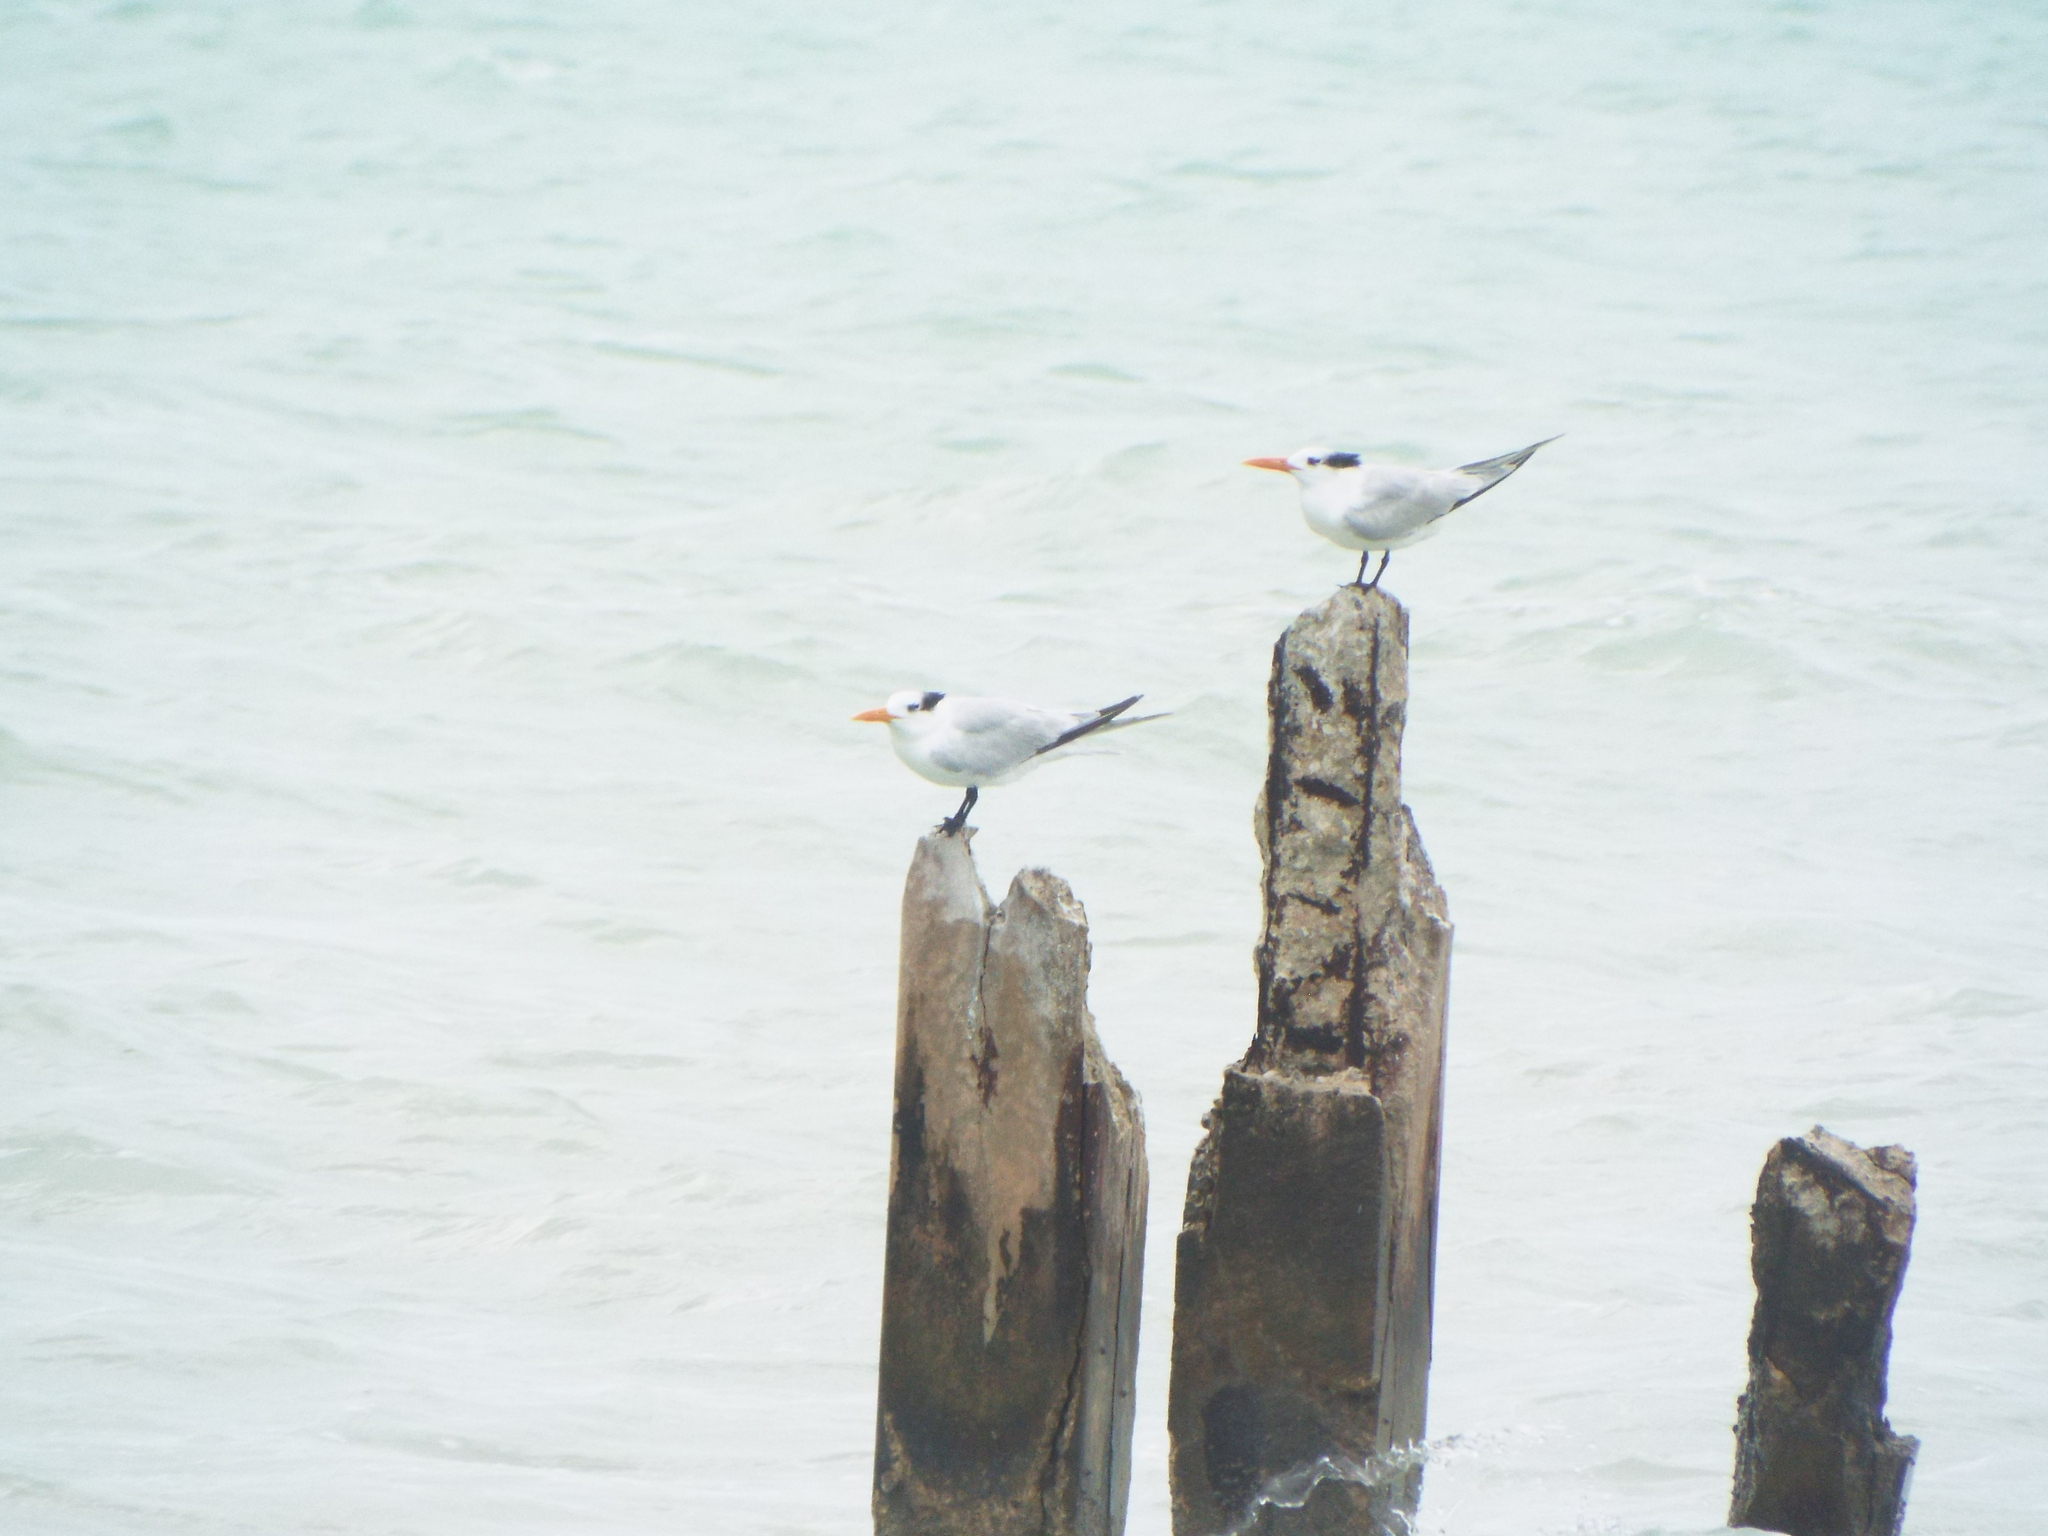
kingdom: Animalia
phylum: Chordata
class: Aves
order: Charadriiformes
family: Laridae
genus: Thalasseus
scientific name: Thalasseus maximus
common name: Royal tern
